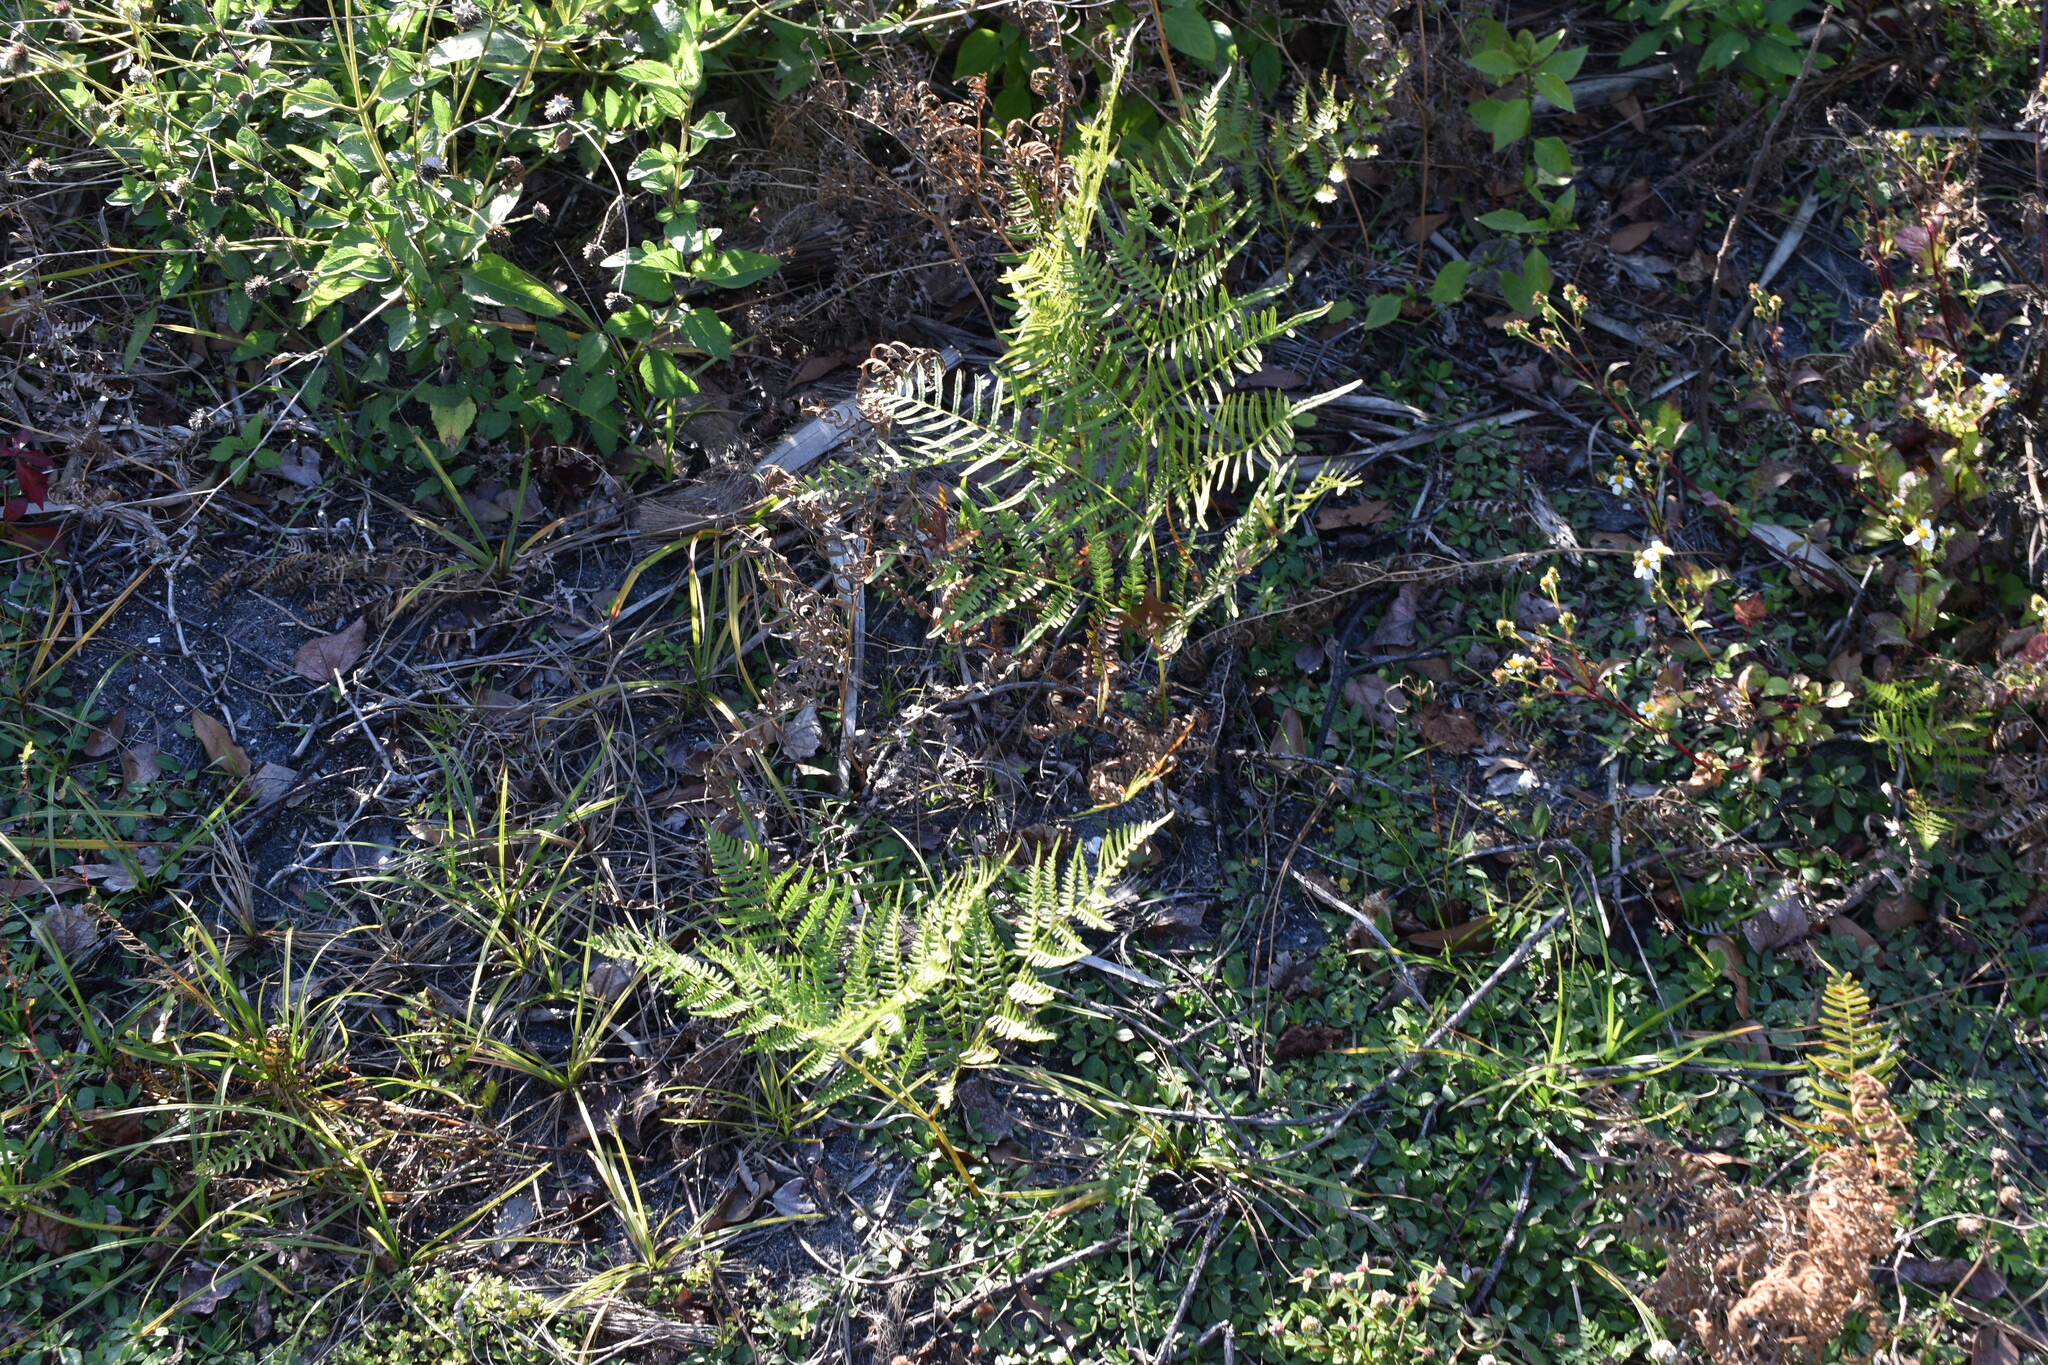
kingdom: Plantae
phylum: Tracheophyta
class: Polypodiopsida
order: Polypodiales
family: Dennstaedtiaceae
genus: Pteridium
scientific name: Pteridium
